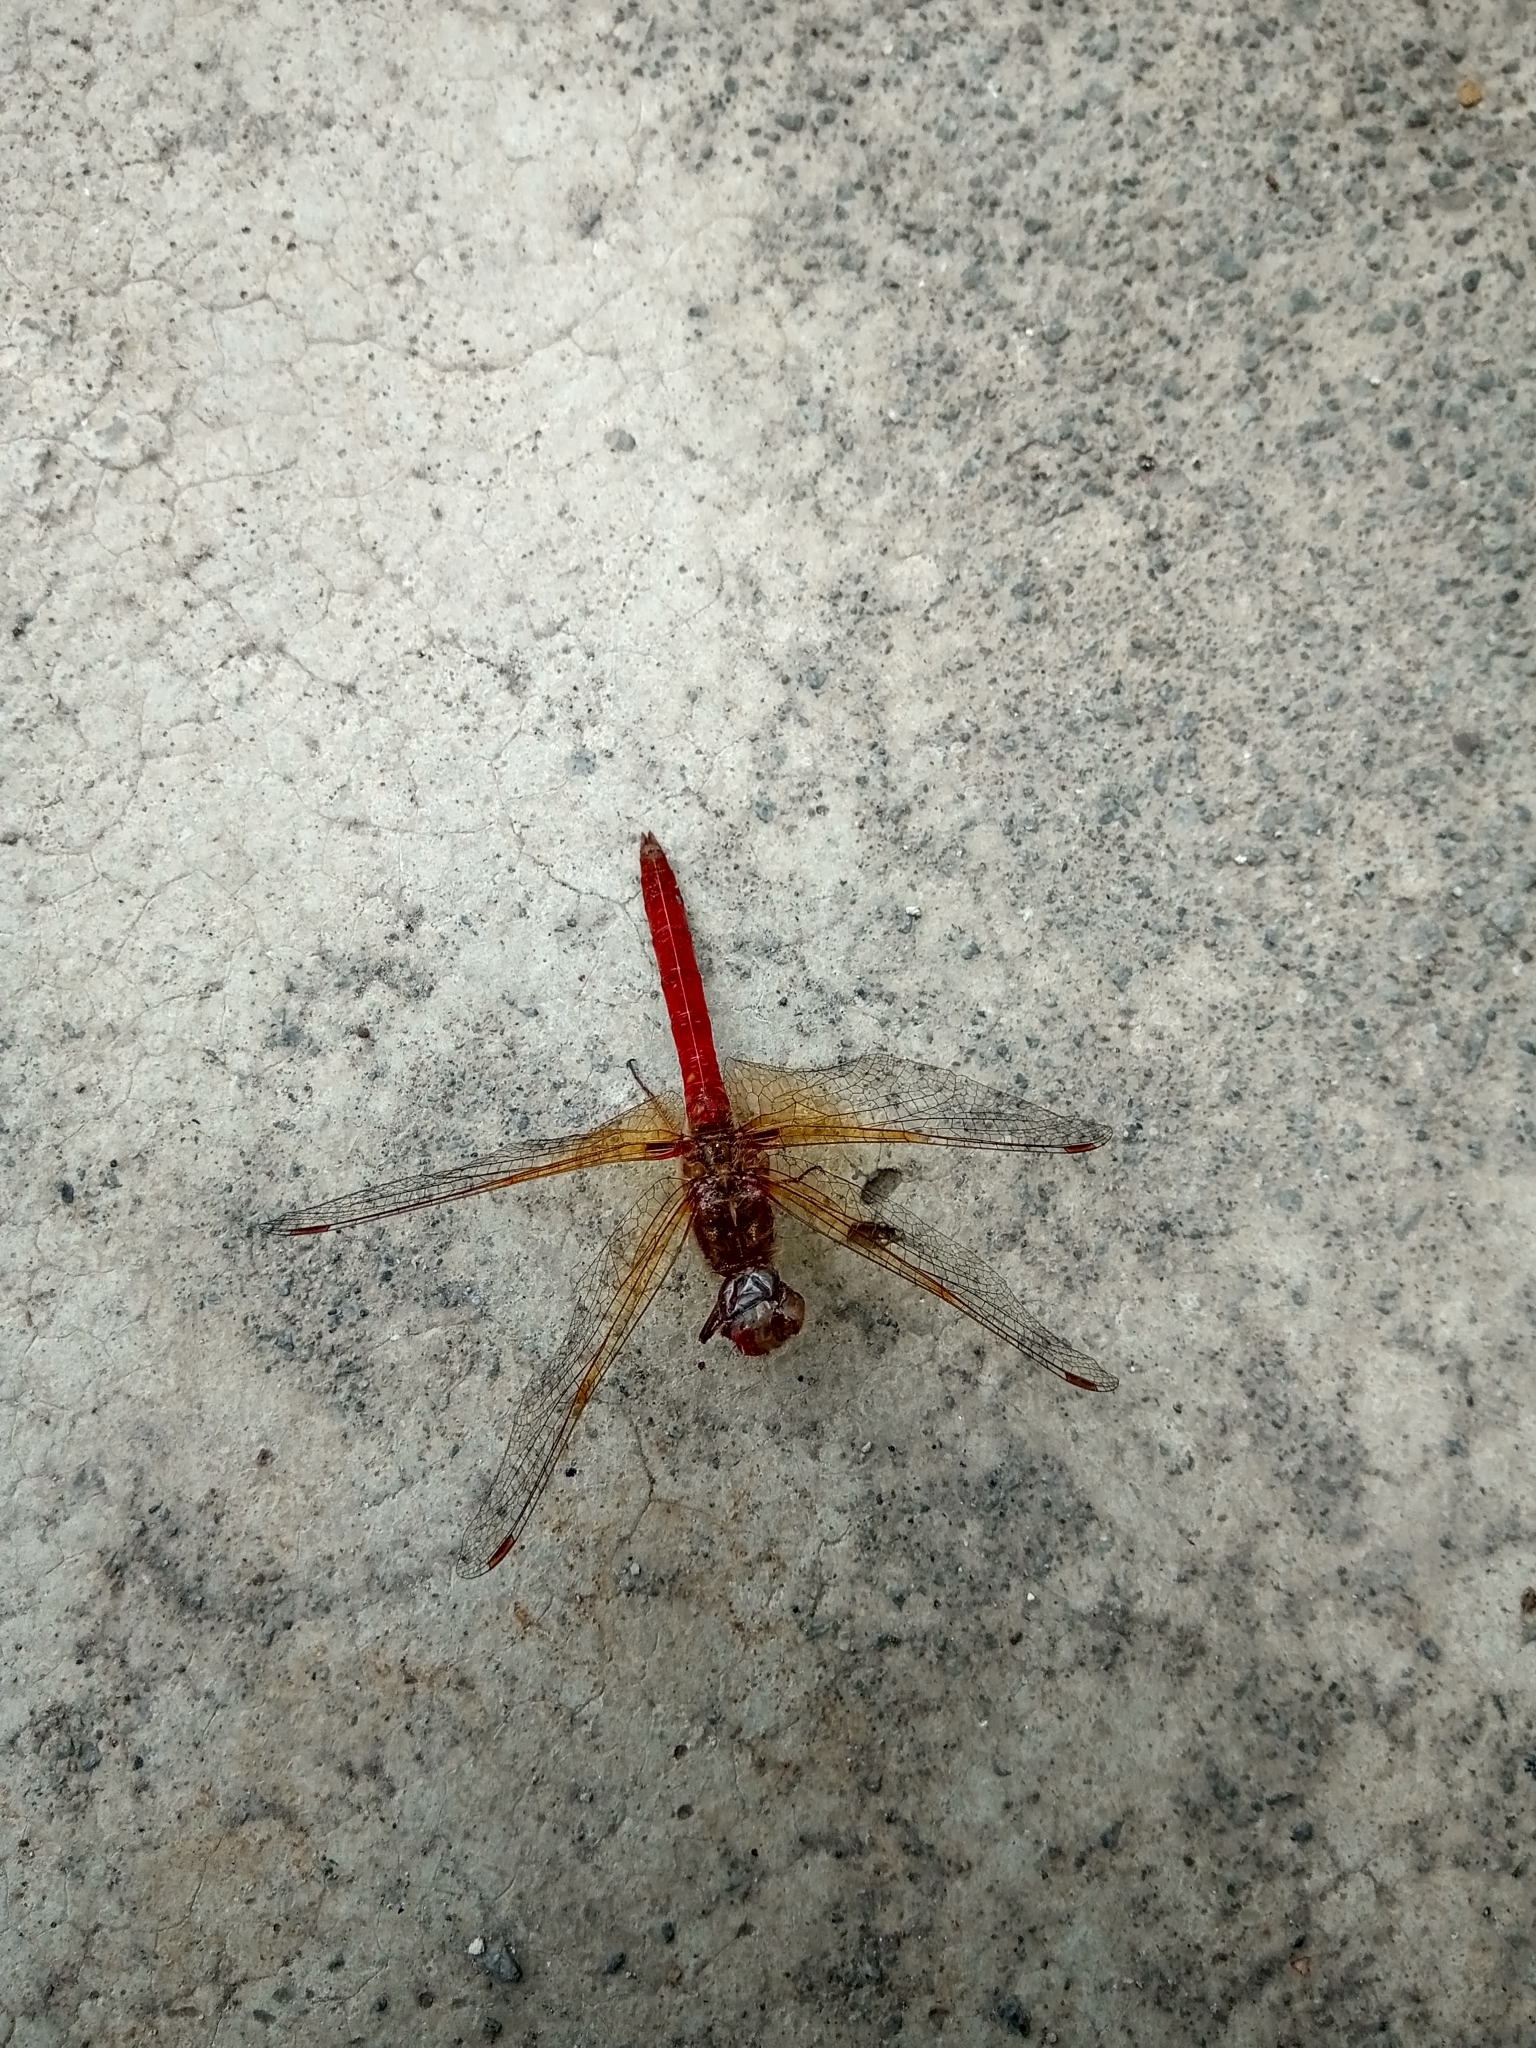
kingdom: Animalia
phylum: Arthropoda
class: Insecta
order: Odonata
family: Libellulidae
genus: Sympetrum
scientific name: Sympetrum illotum
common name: Cardinal meadowhawk
